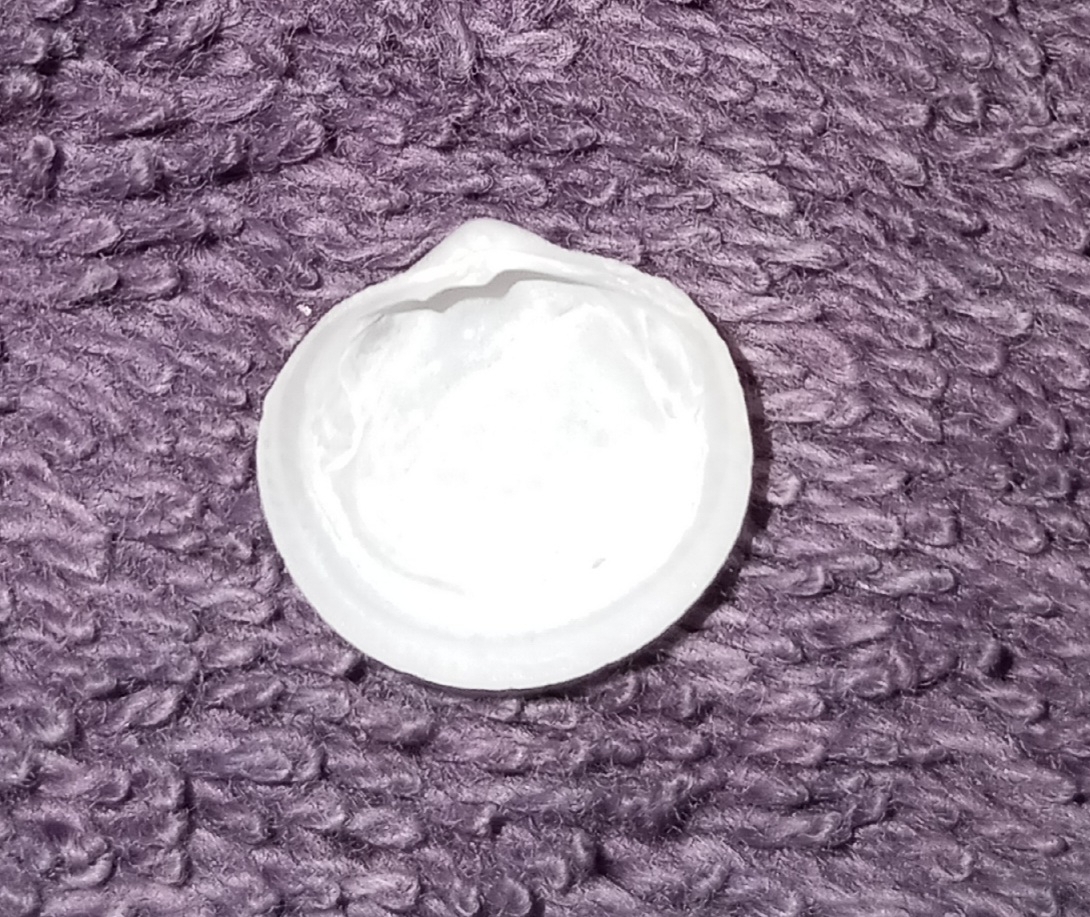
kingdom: Animalia
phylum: Mollusca
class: Bivalvia
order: Lucinida
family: Lucinidae
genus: Divalinga
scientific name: Divalinga quadrisulcata
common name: Cross-hatched lucine
